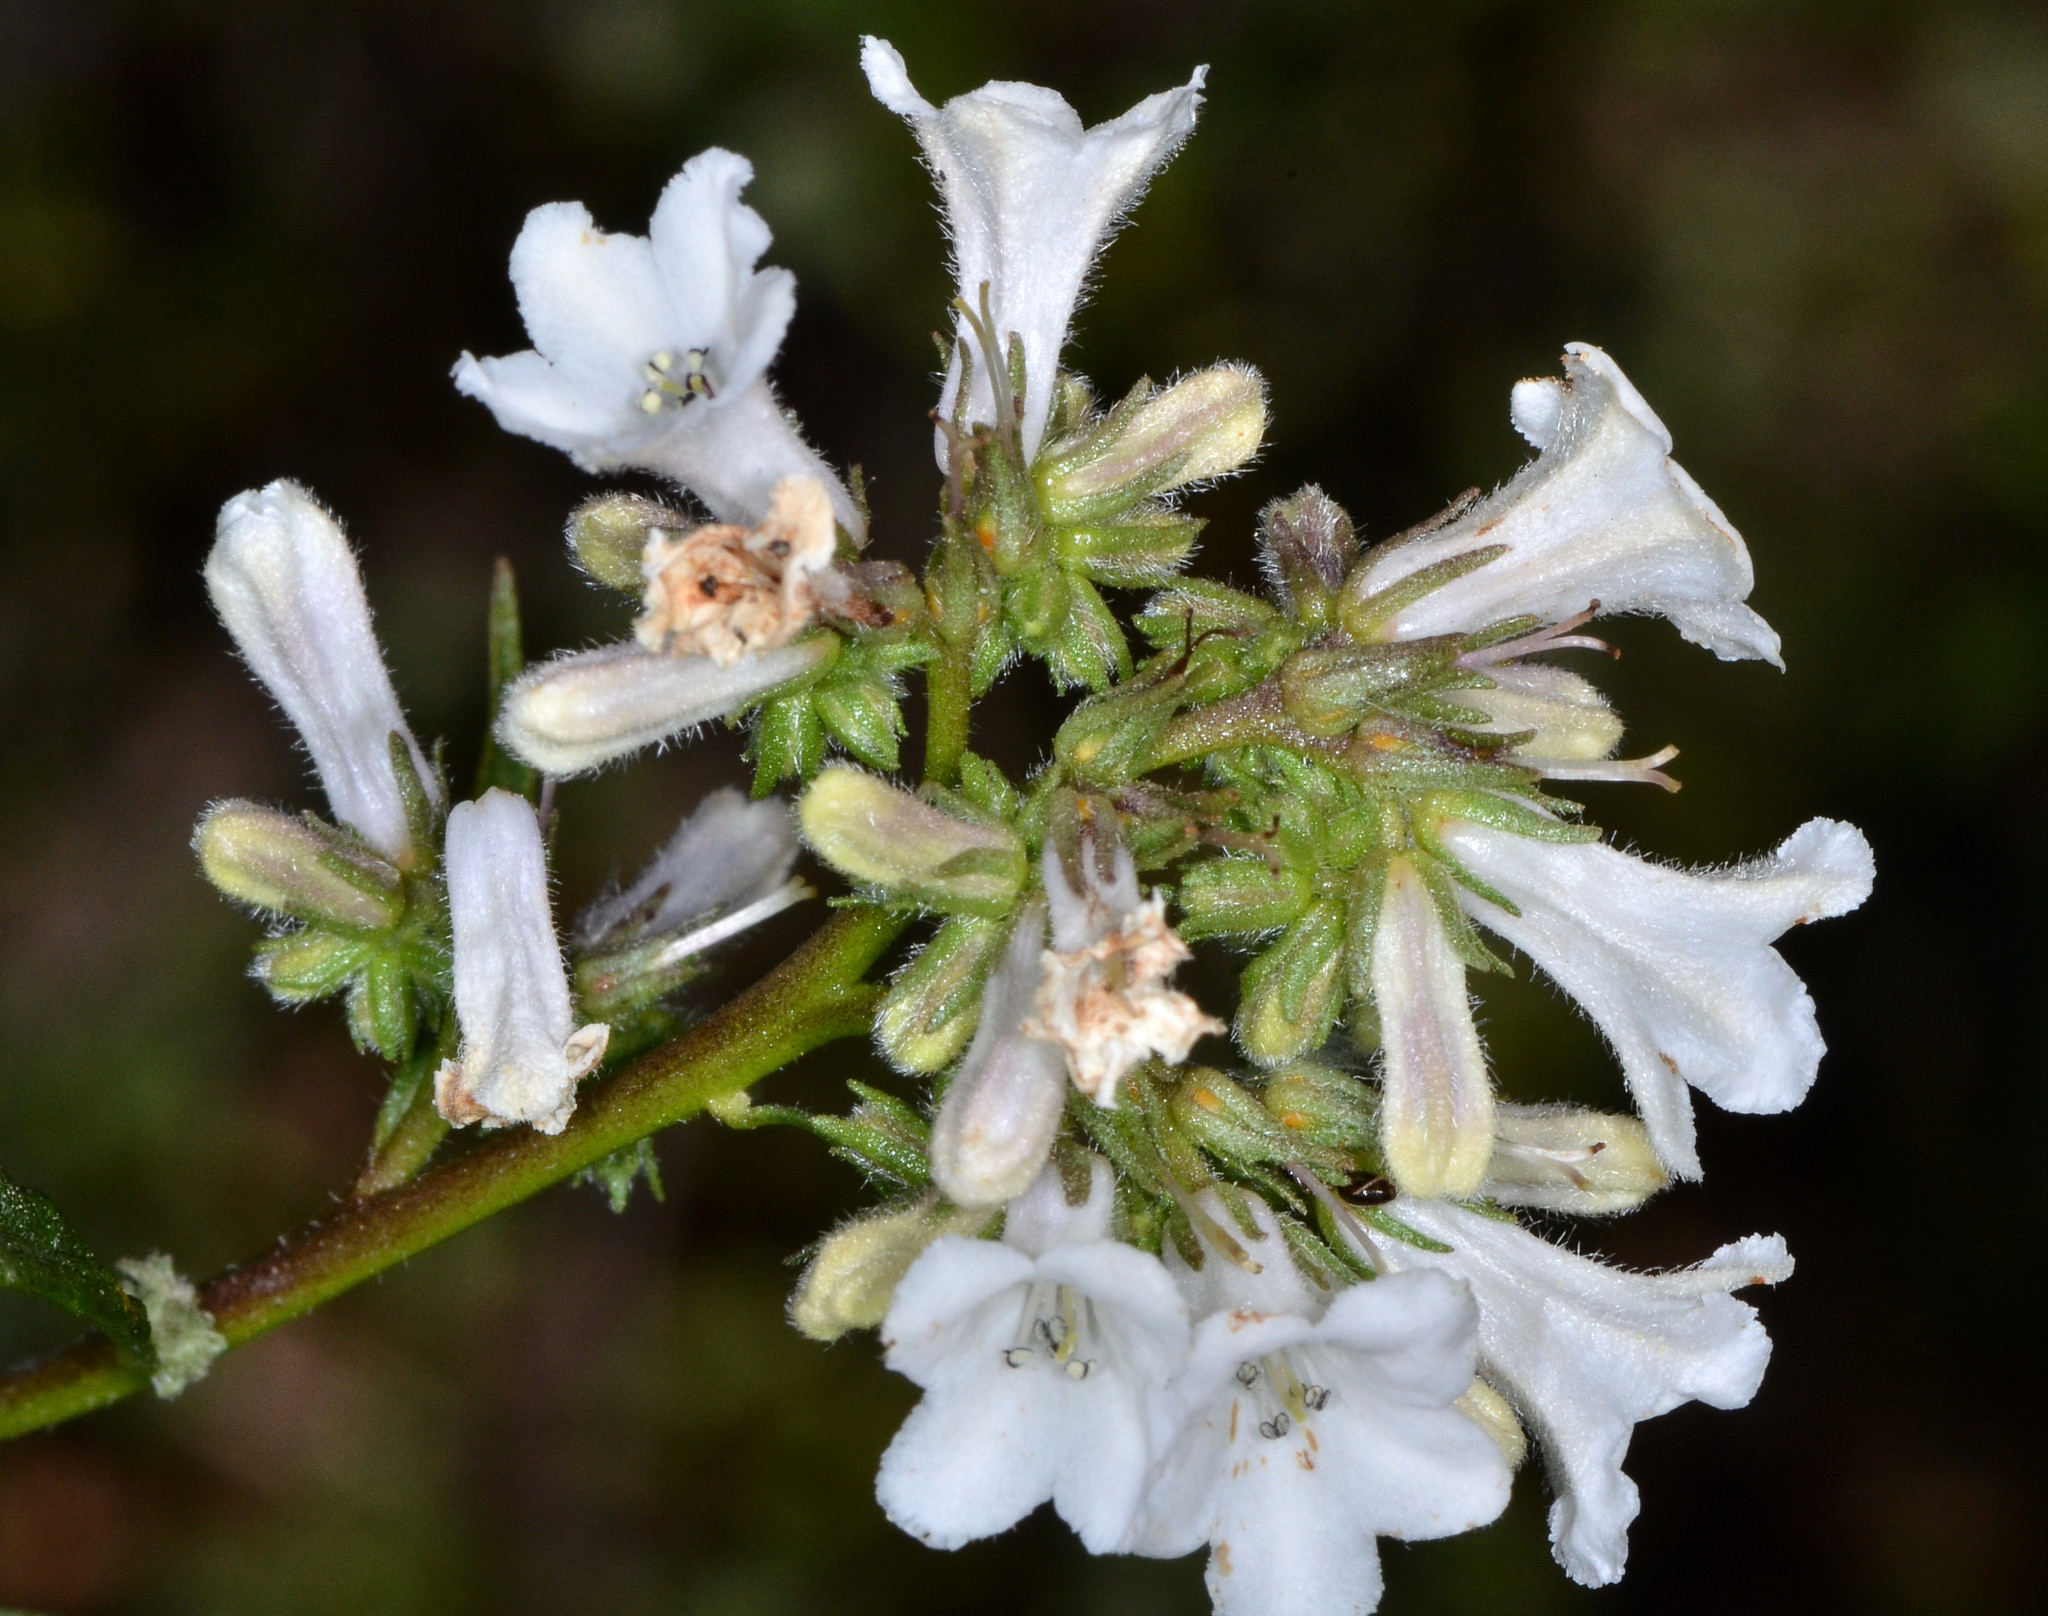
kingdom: Plantae
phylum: Tracheophyta
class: Magnoliopsida
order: Boraginales
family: Namaceae
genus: Eriodictyon
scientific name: Eriodictyon californicum
